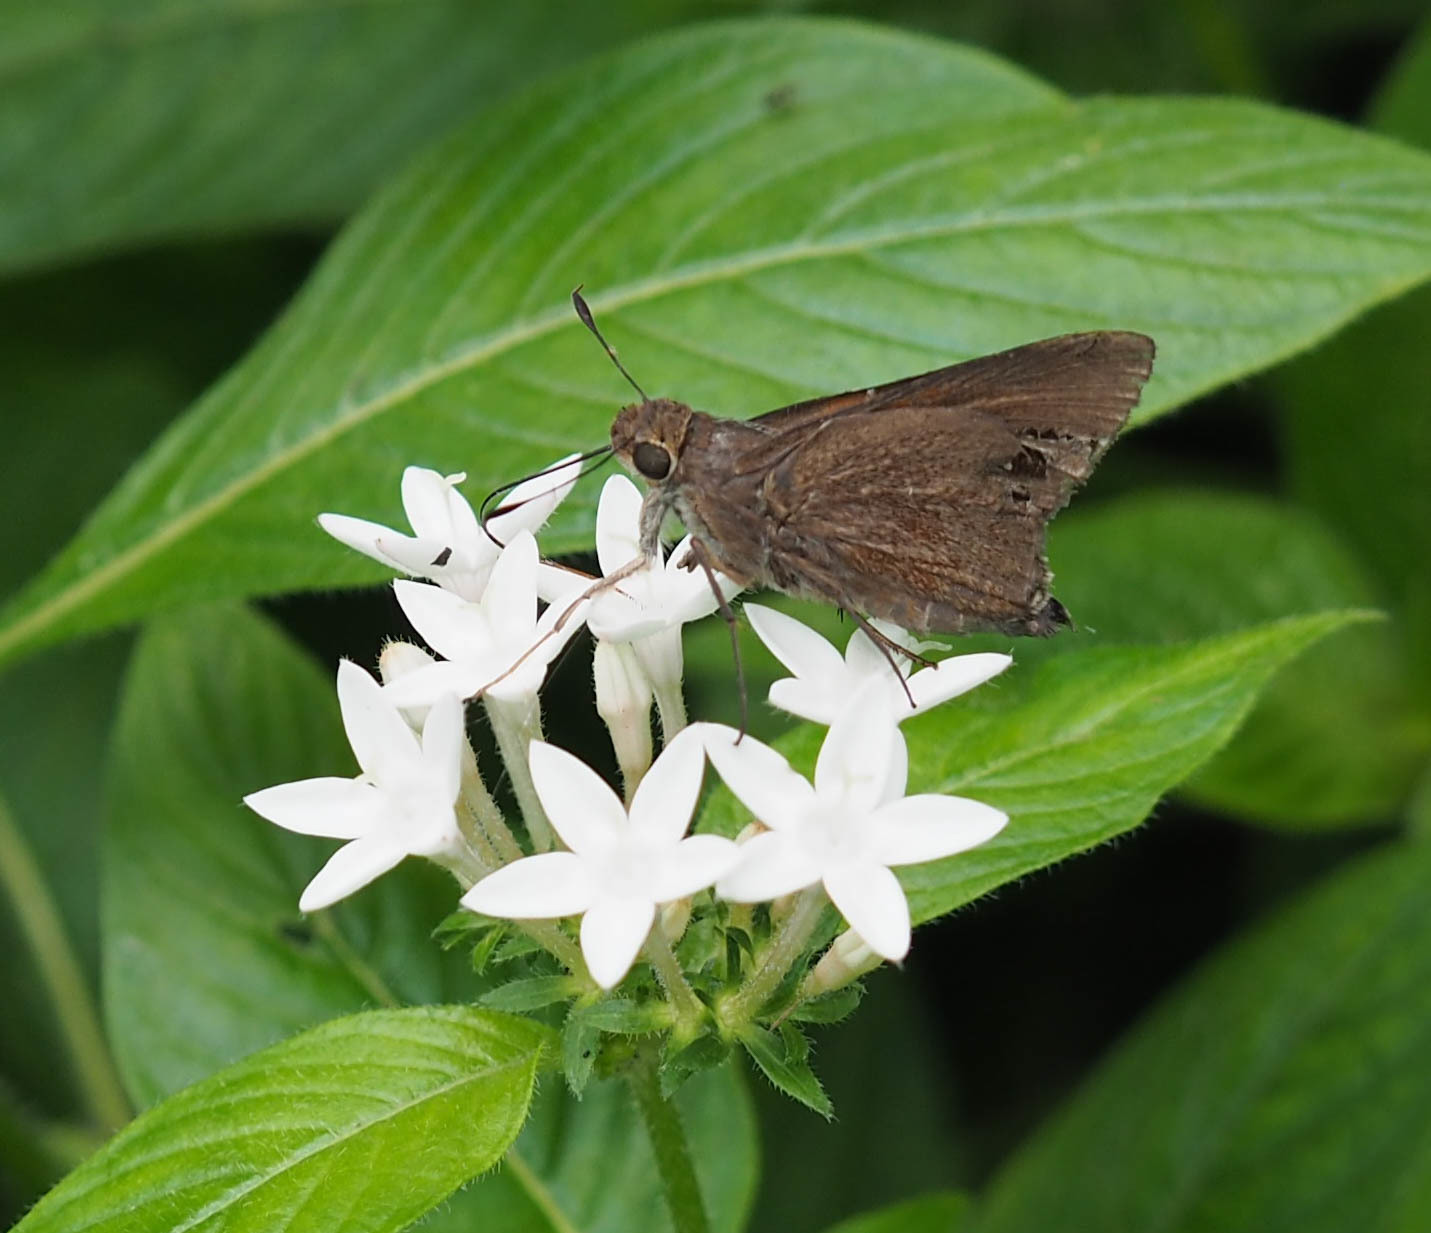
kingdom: Animalia
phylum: Arthropoda
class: Insecta
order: Lepidoptera
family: Hesperiidae
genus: Asbolis
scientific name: Asbolis capucinus
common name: Monk skipper
